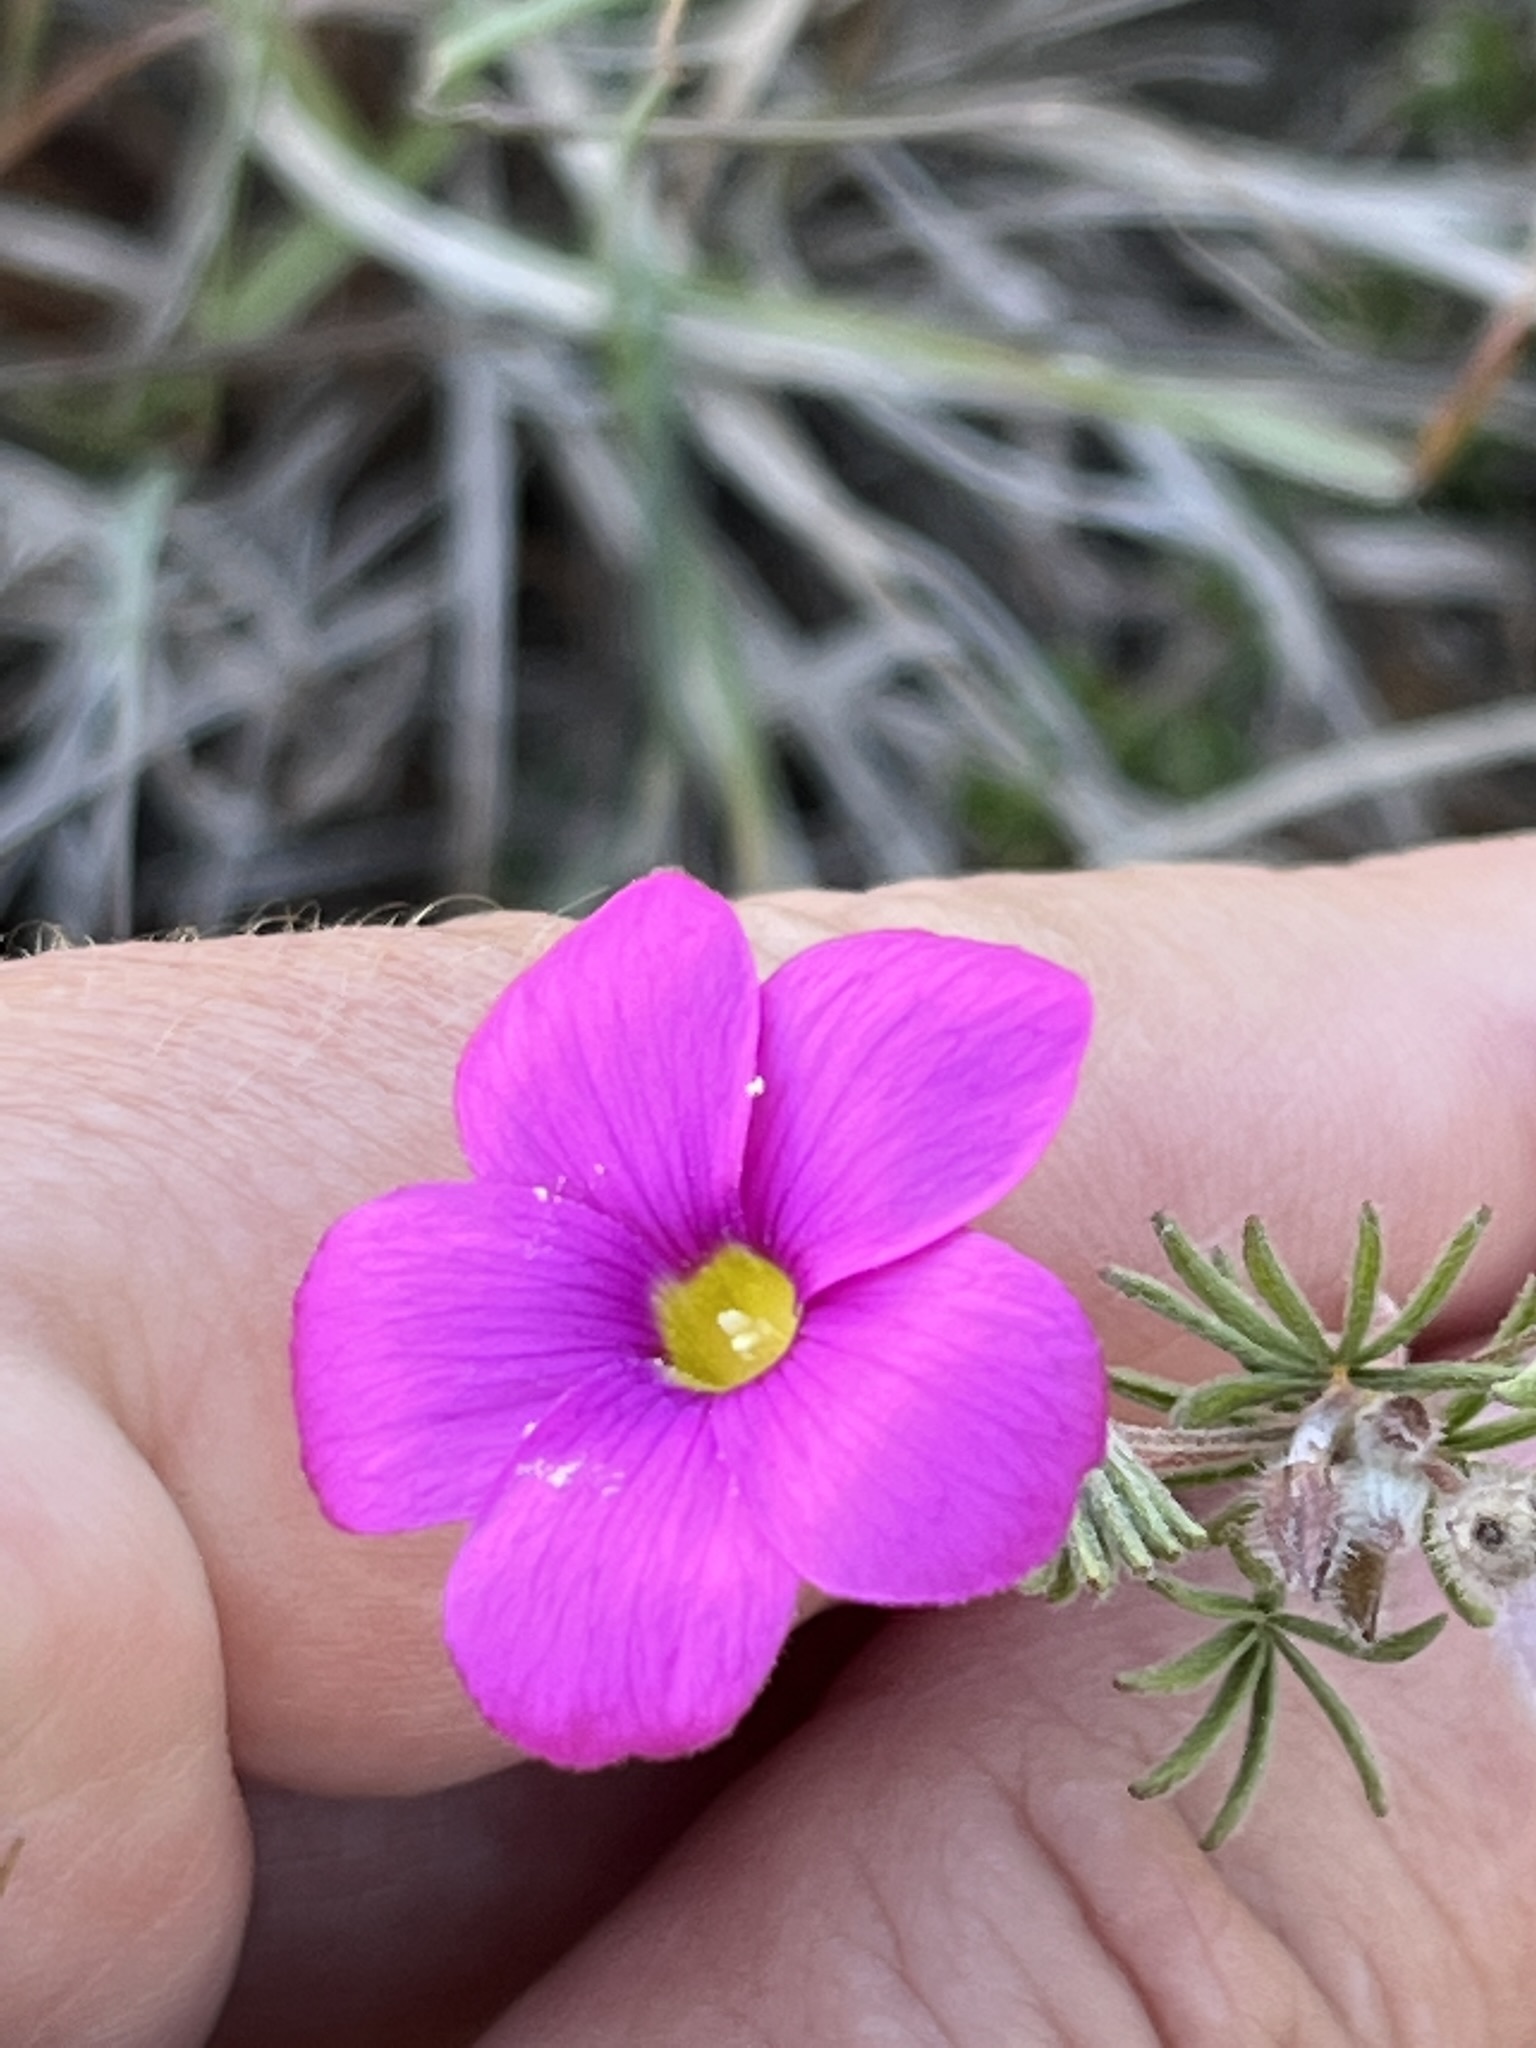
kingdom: Plantae
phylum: Tracheophyta
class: Magnoliopsida
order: Oxalidales
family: Oxalidaceae
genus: Oxalis
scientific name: Oxalis engleriana
